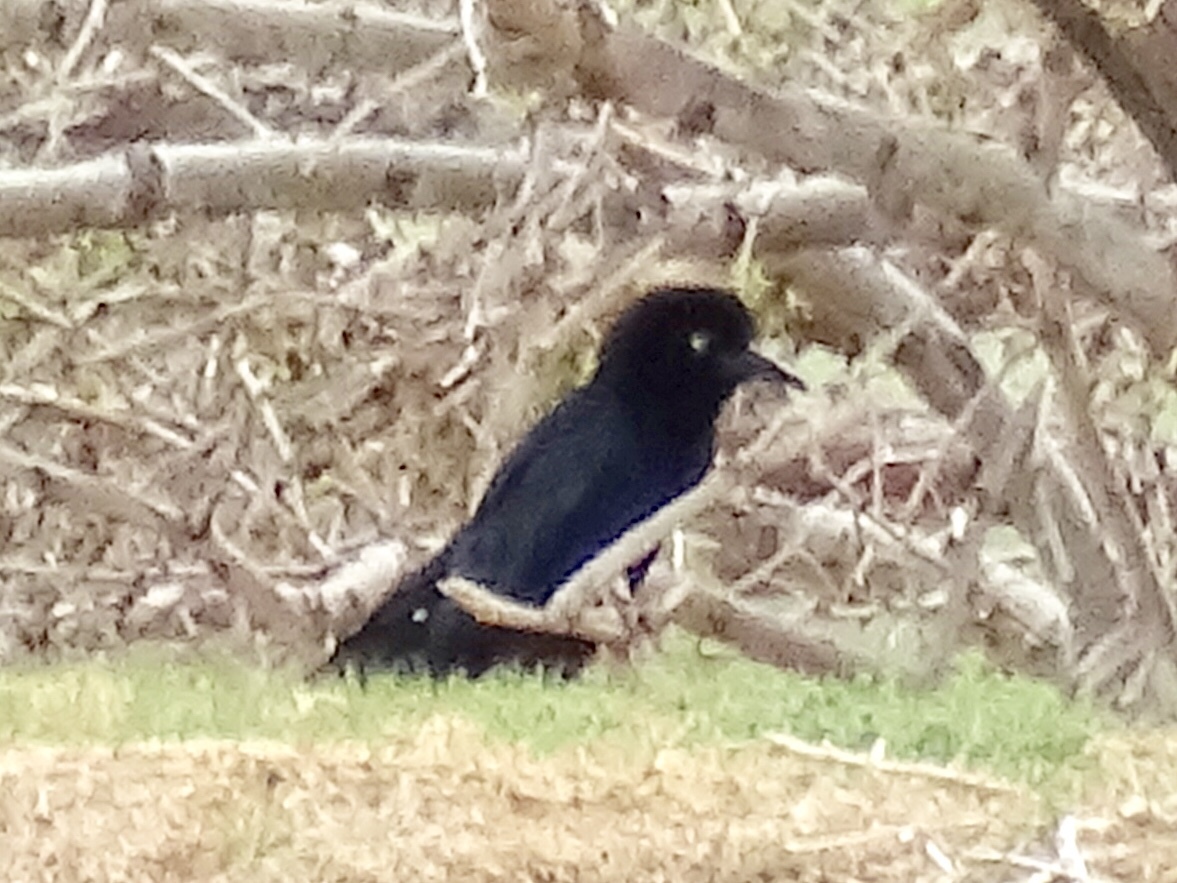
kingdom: Animalia
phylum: Chordata
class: Aves
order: Passeriformes
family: Icteridae
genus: Quiscalus
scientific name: Quiscalus mexicanus
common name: Great-tailed grackle
